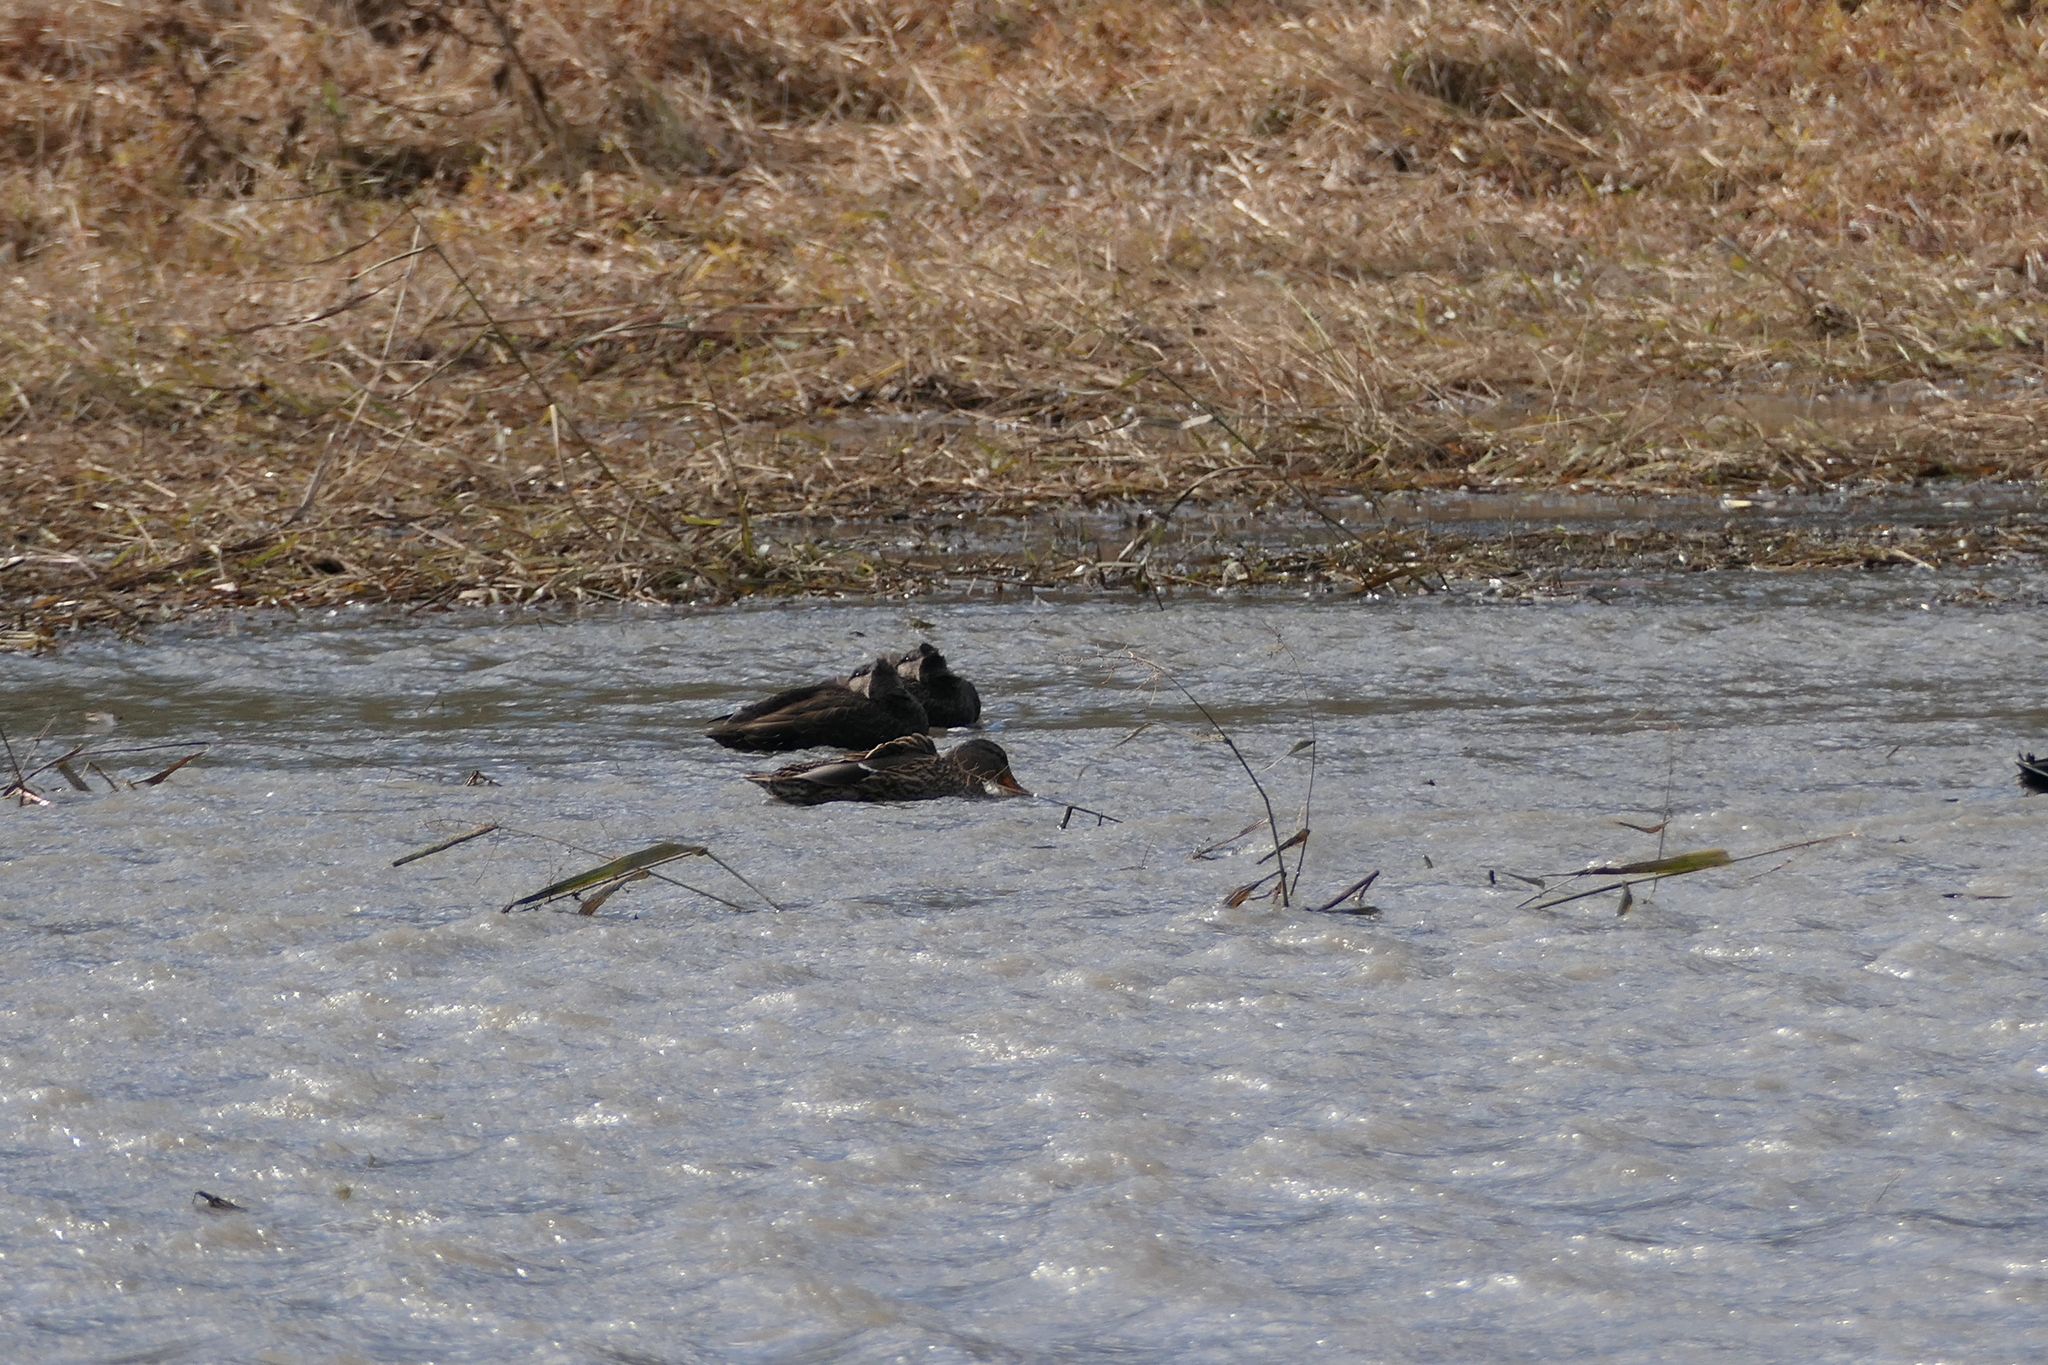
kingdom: Animalia
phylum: Chordata
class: Aves
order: Anseriformes
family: Anatidae
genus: Anas
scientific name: Anas rubripes
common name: American black duck
